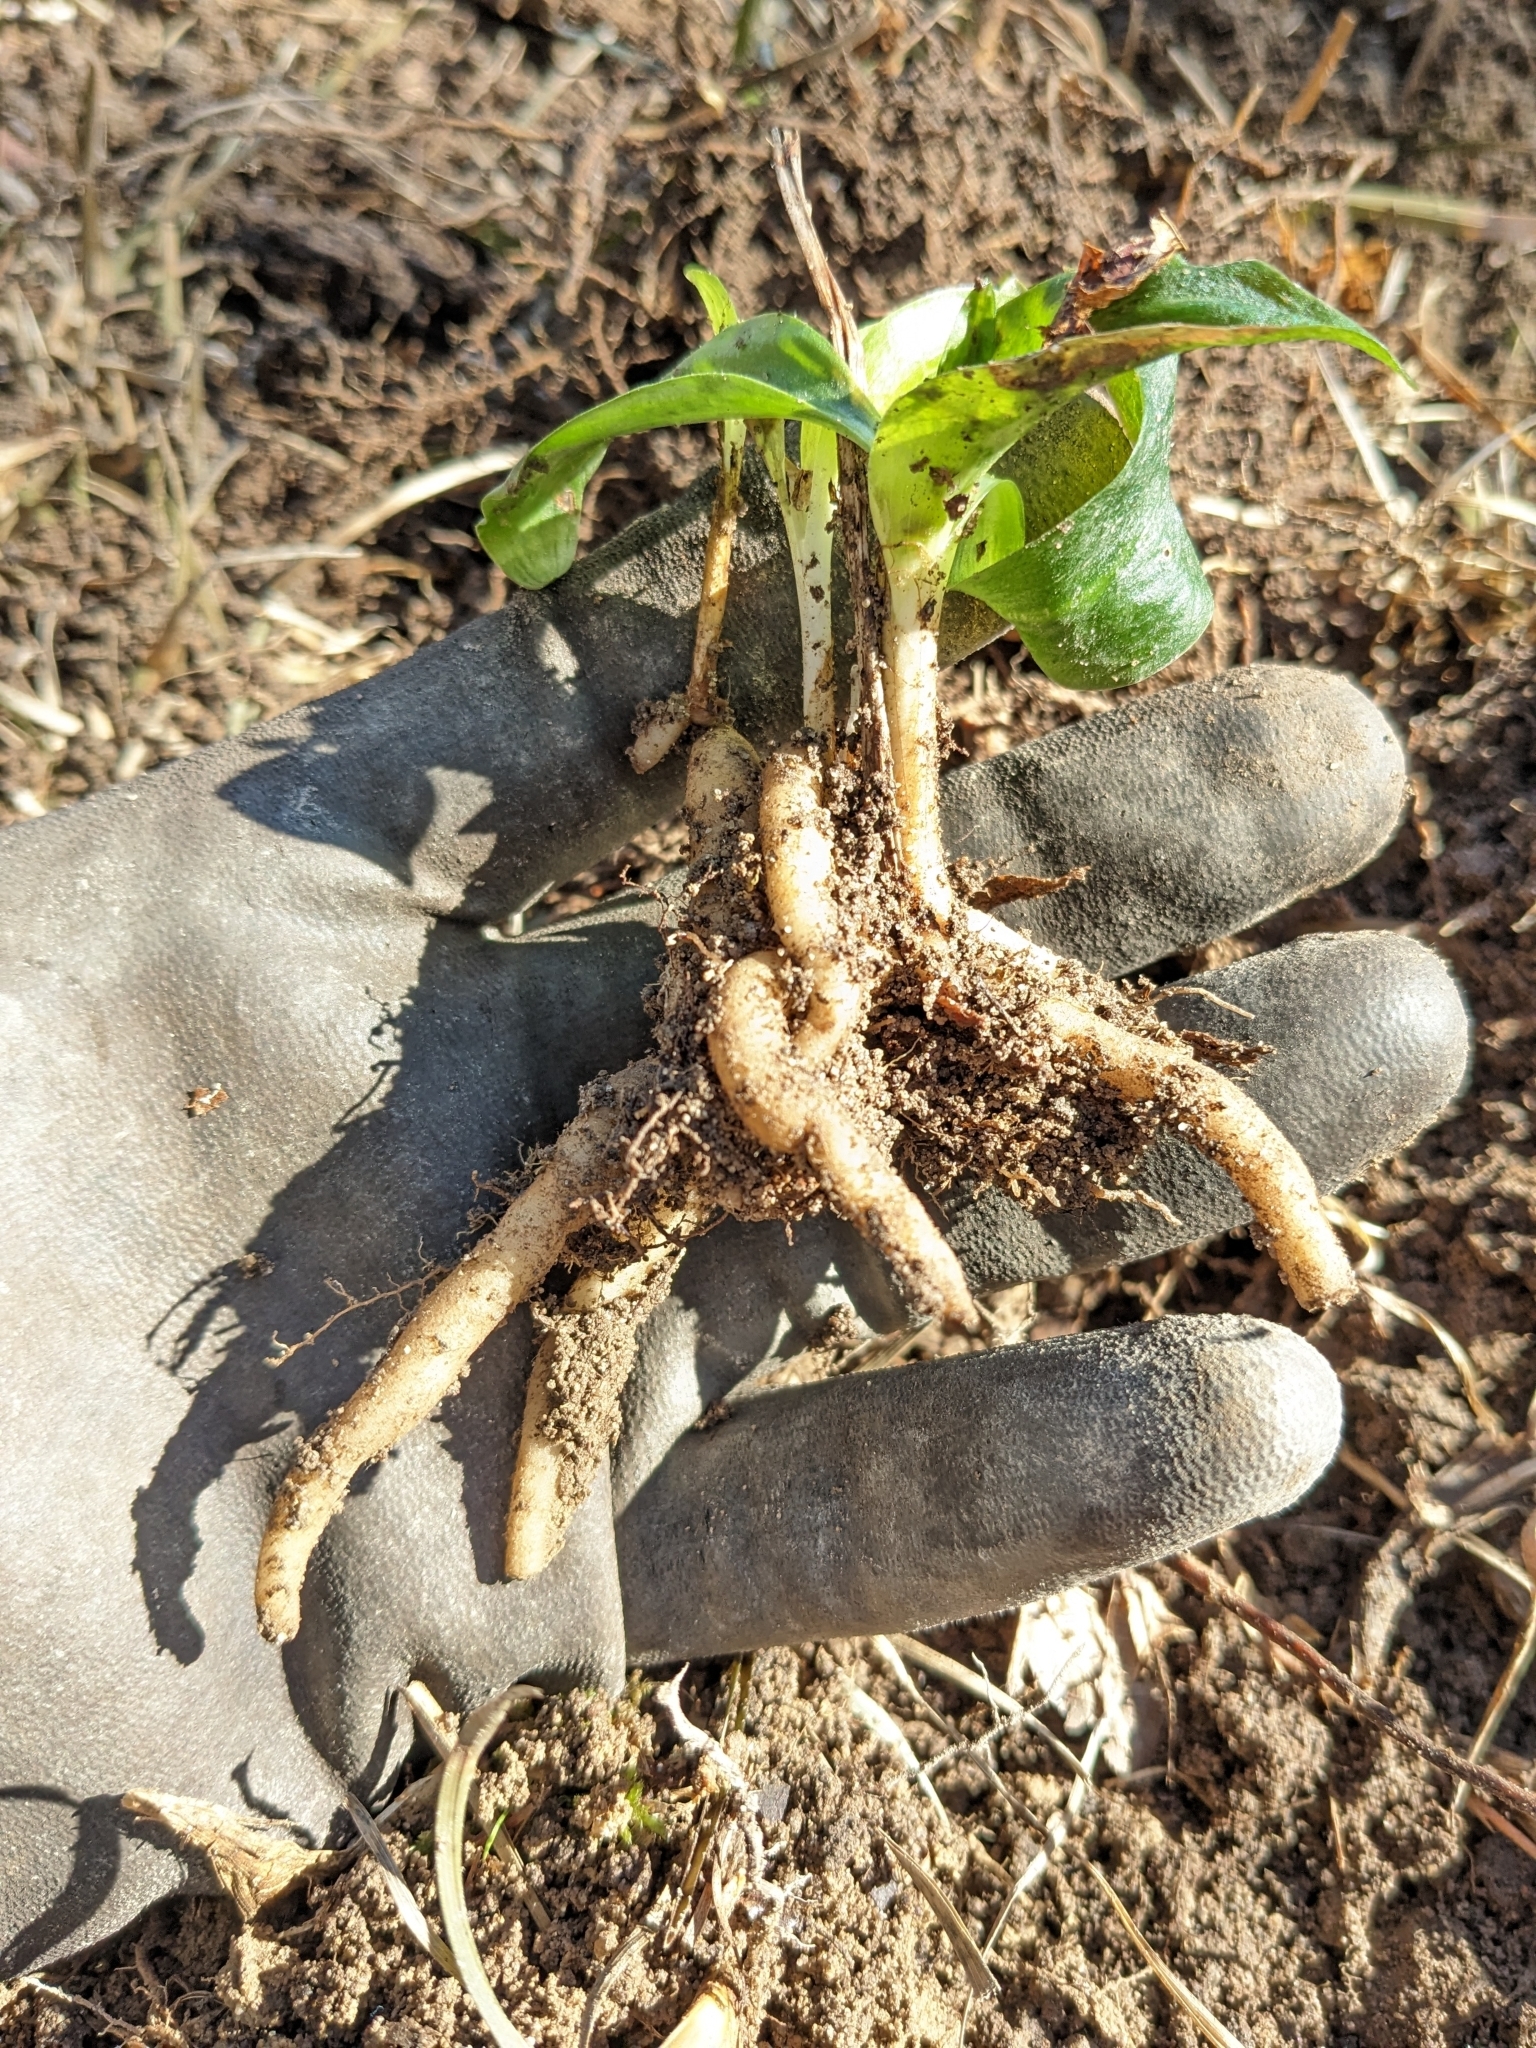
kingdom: Plantae
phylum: Tracheophyta
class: Liliopsida
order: Asparagales
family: Orchidaceae
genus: Spiranthes
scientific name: Spiranthes lacera
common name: Northern slender ladies'-tresses
